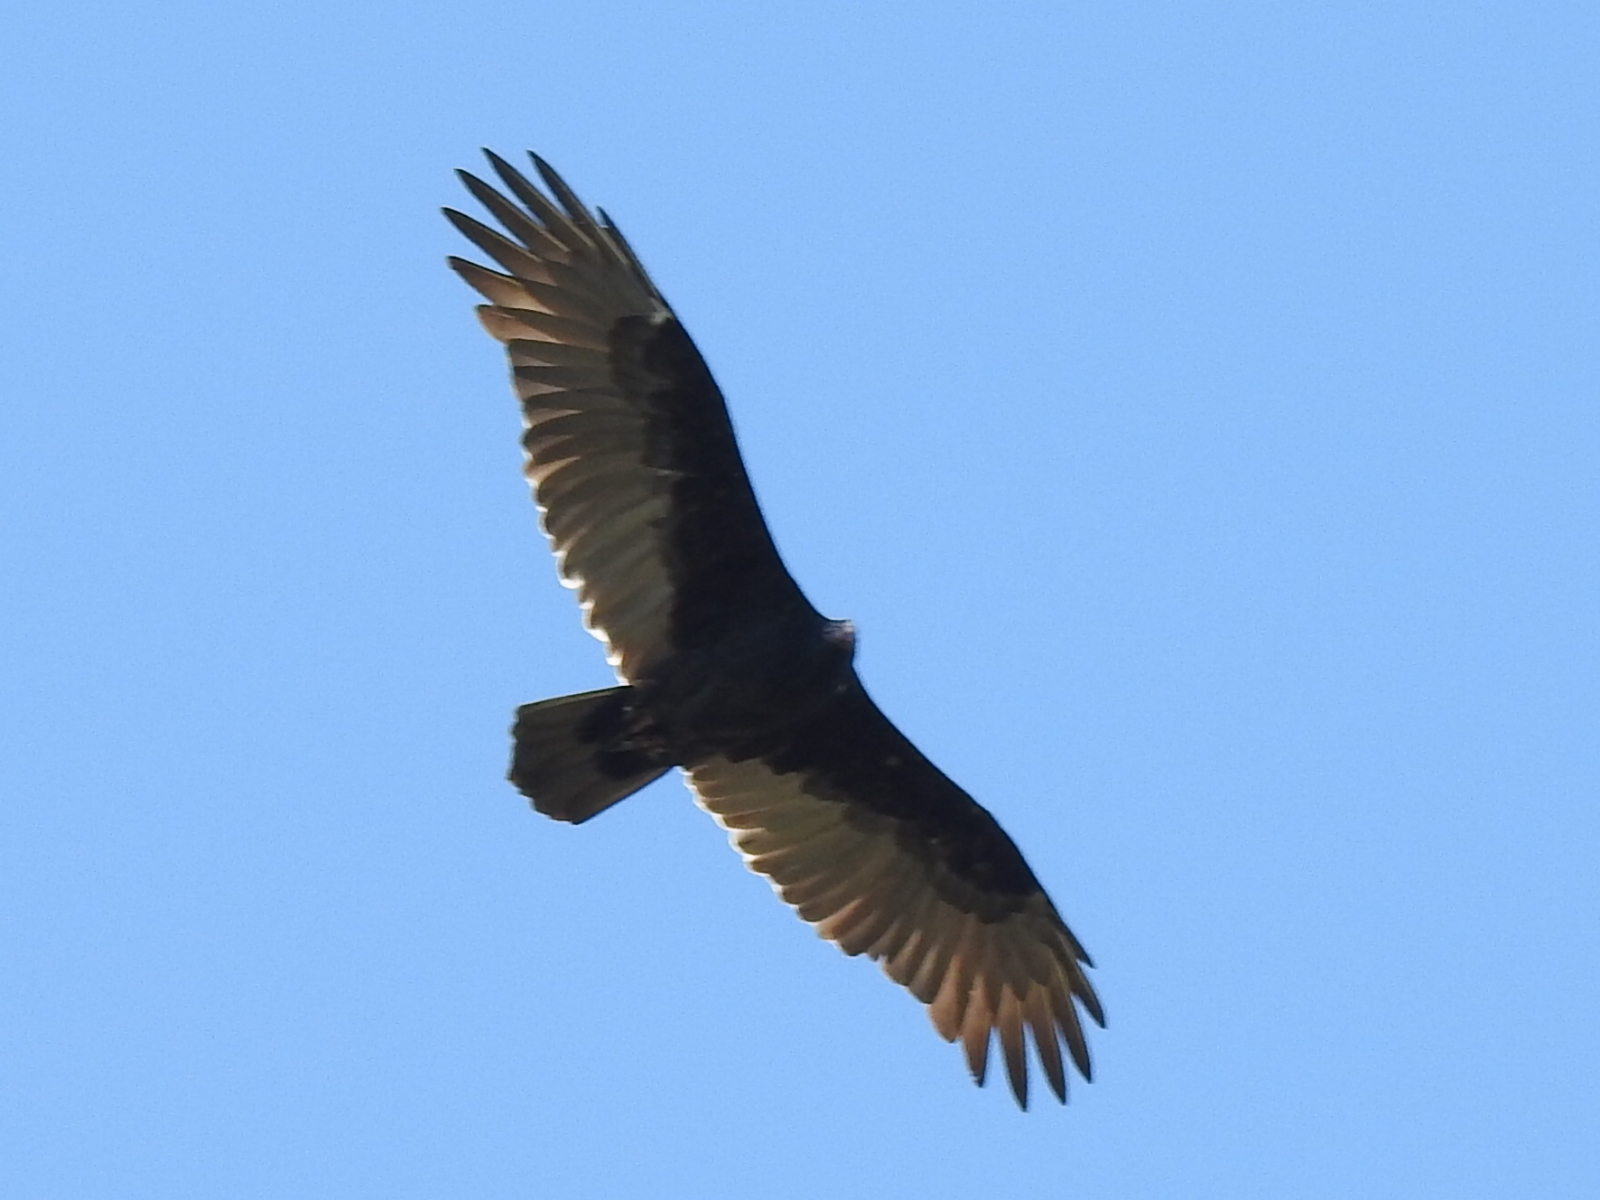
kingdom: Animalia
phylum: Chordata
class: Aves
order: Accipitriformes
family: Cathartidae
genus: Cathartes
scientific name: Cathartes aura
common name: Turkey vulture
